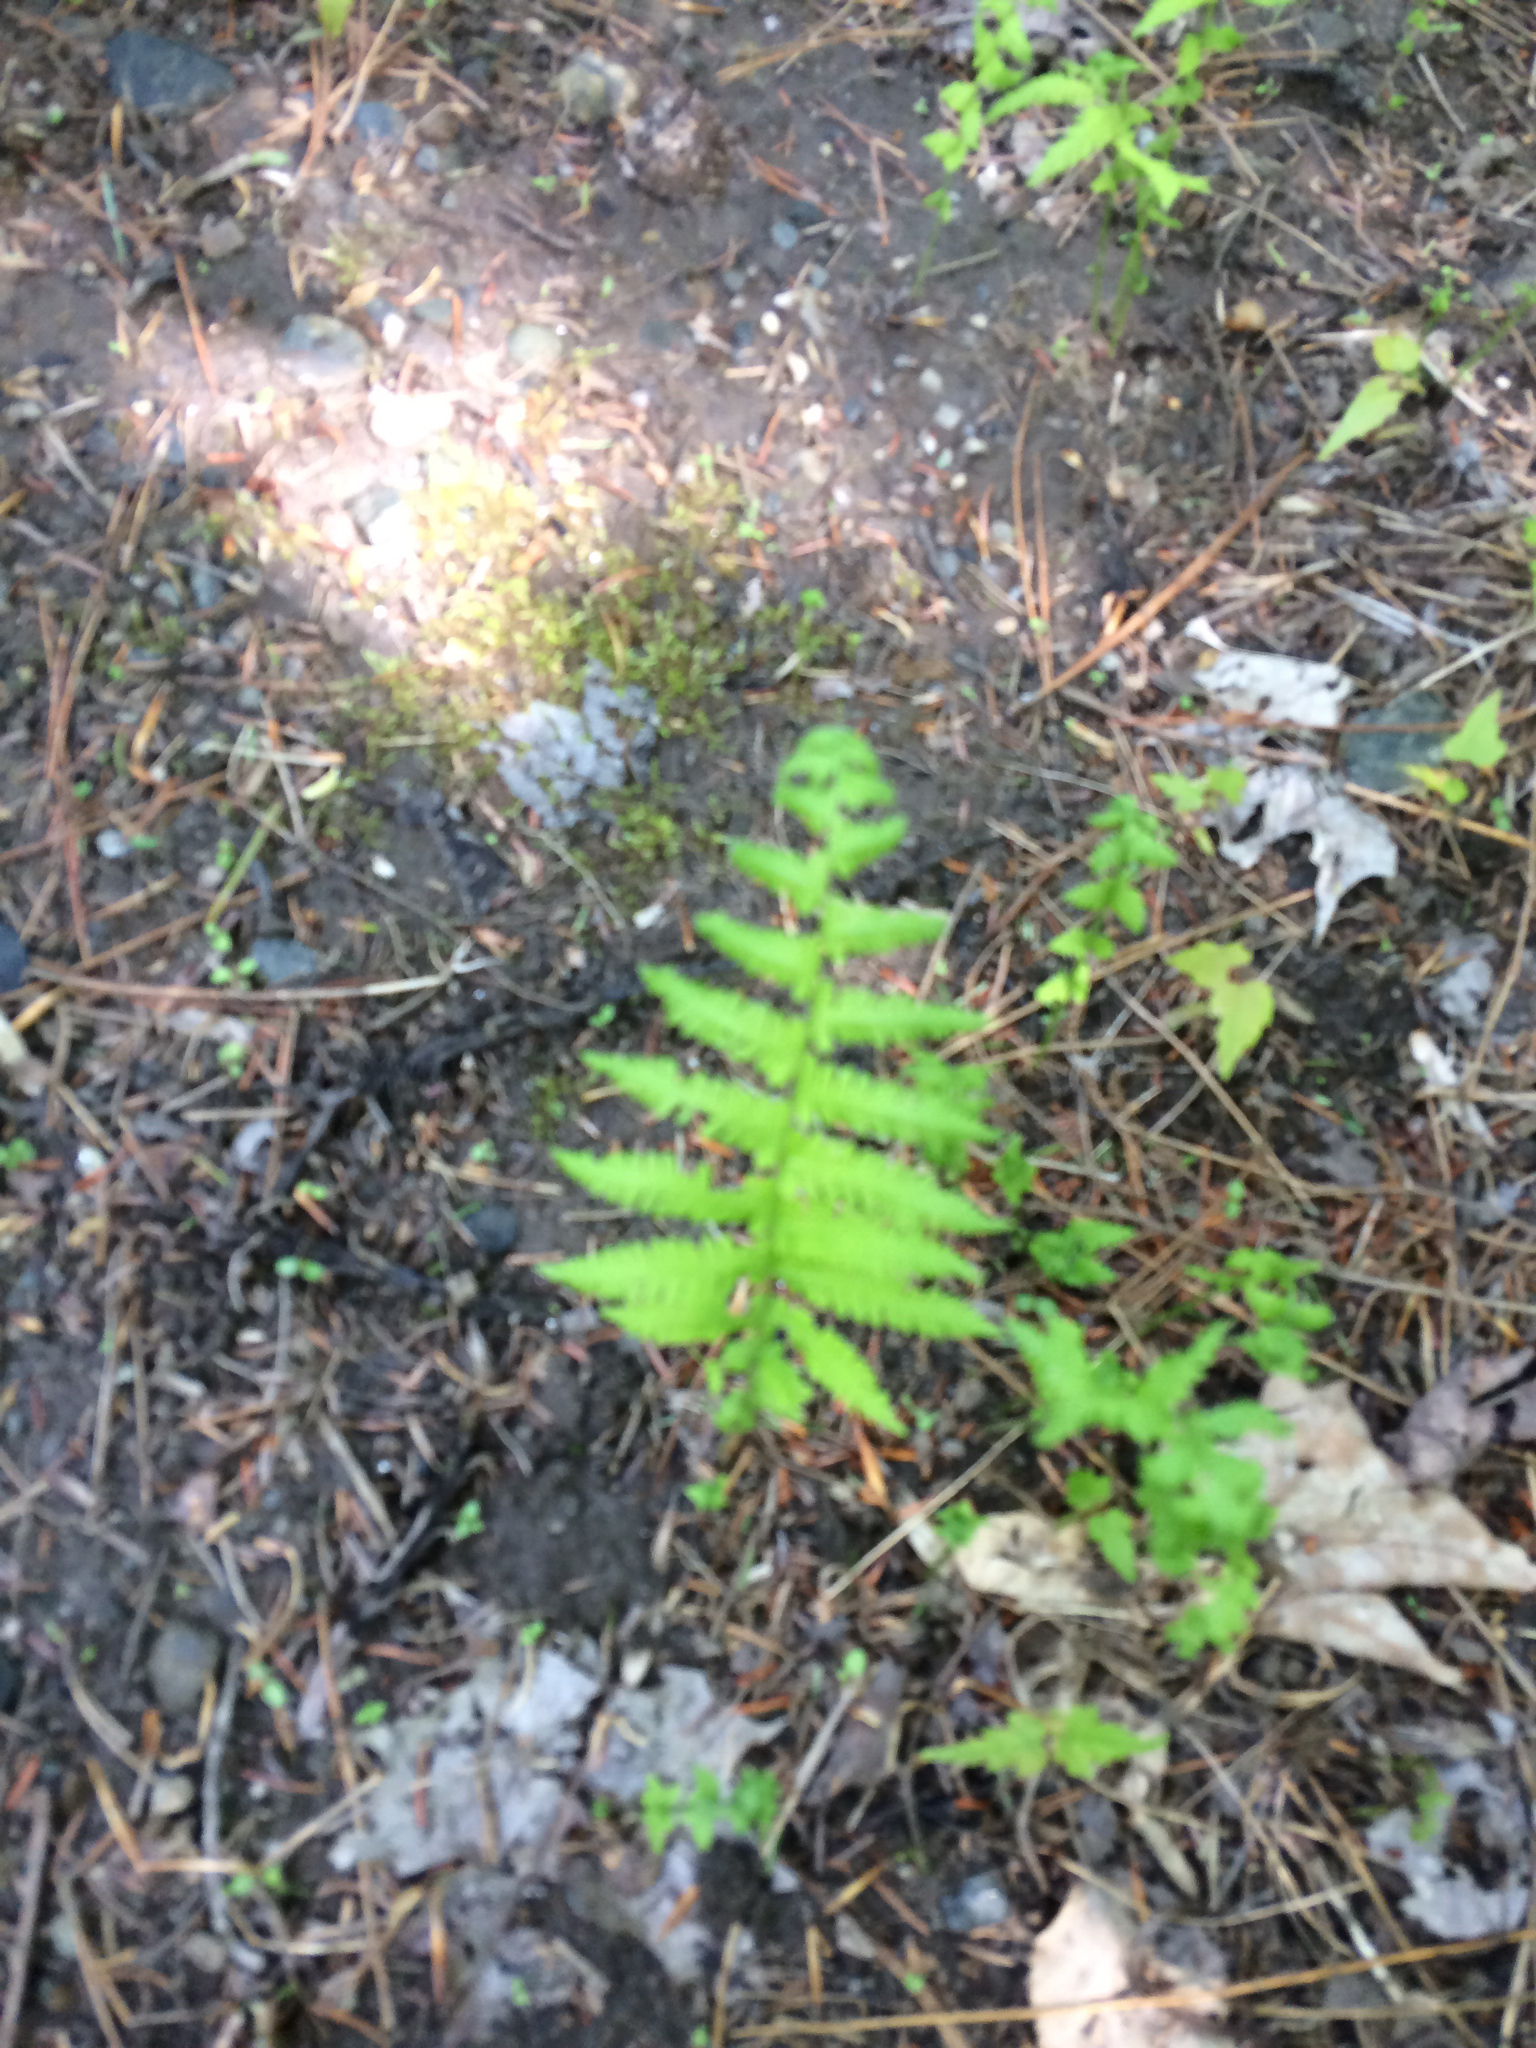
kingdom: Plantae
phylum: Tracheophyta
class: Polypodiopsida
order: Polypodiales
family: Thelypteridaceae
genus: Amauropelta
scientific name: Amauropelta noveboracensis
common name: New york fern
